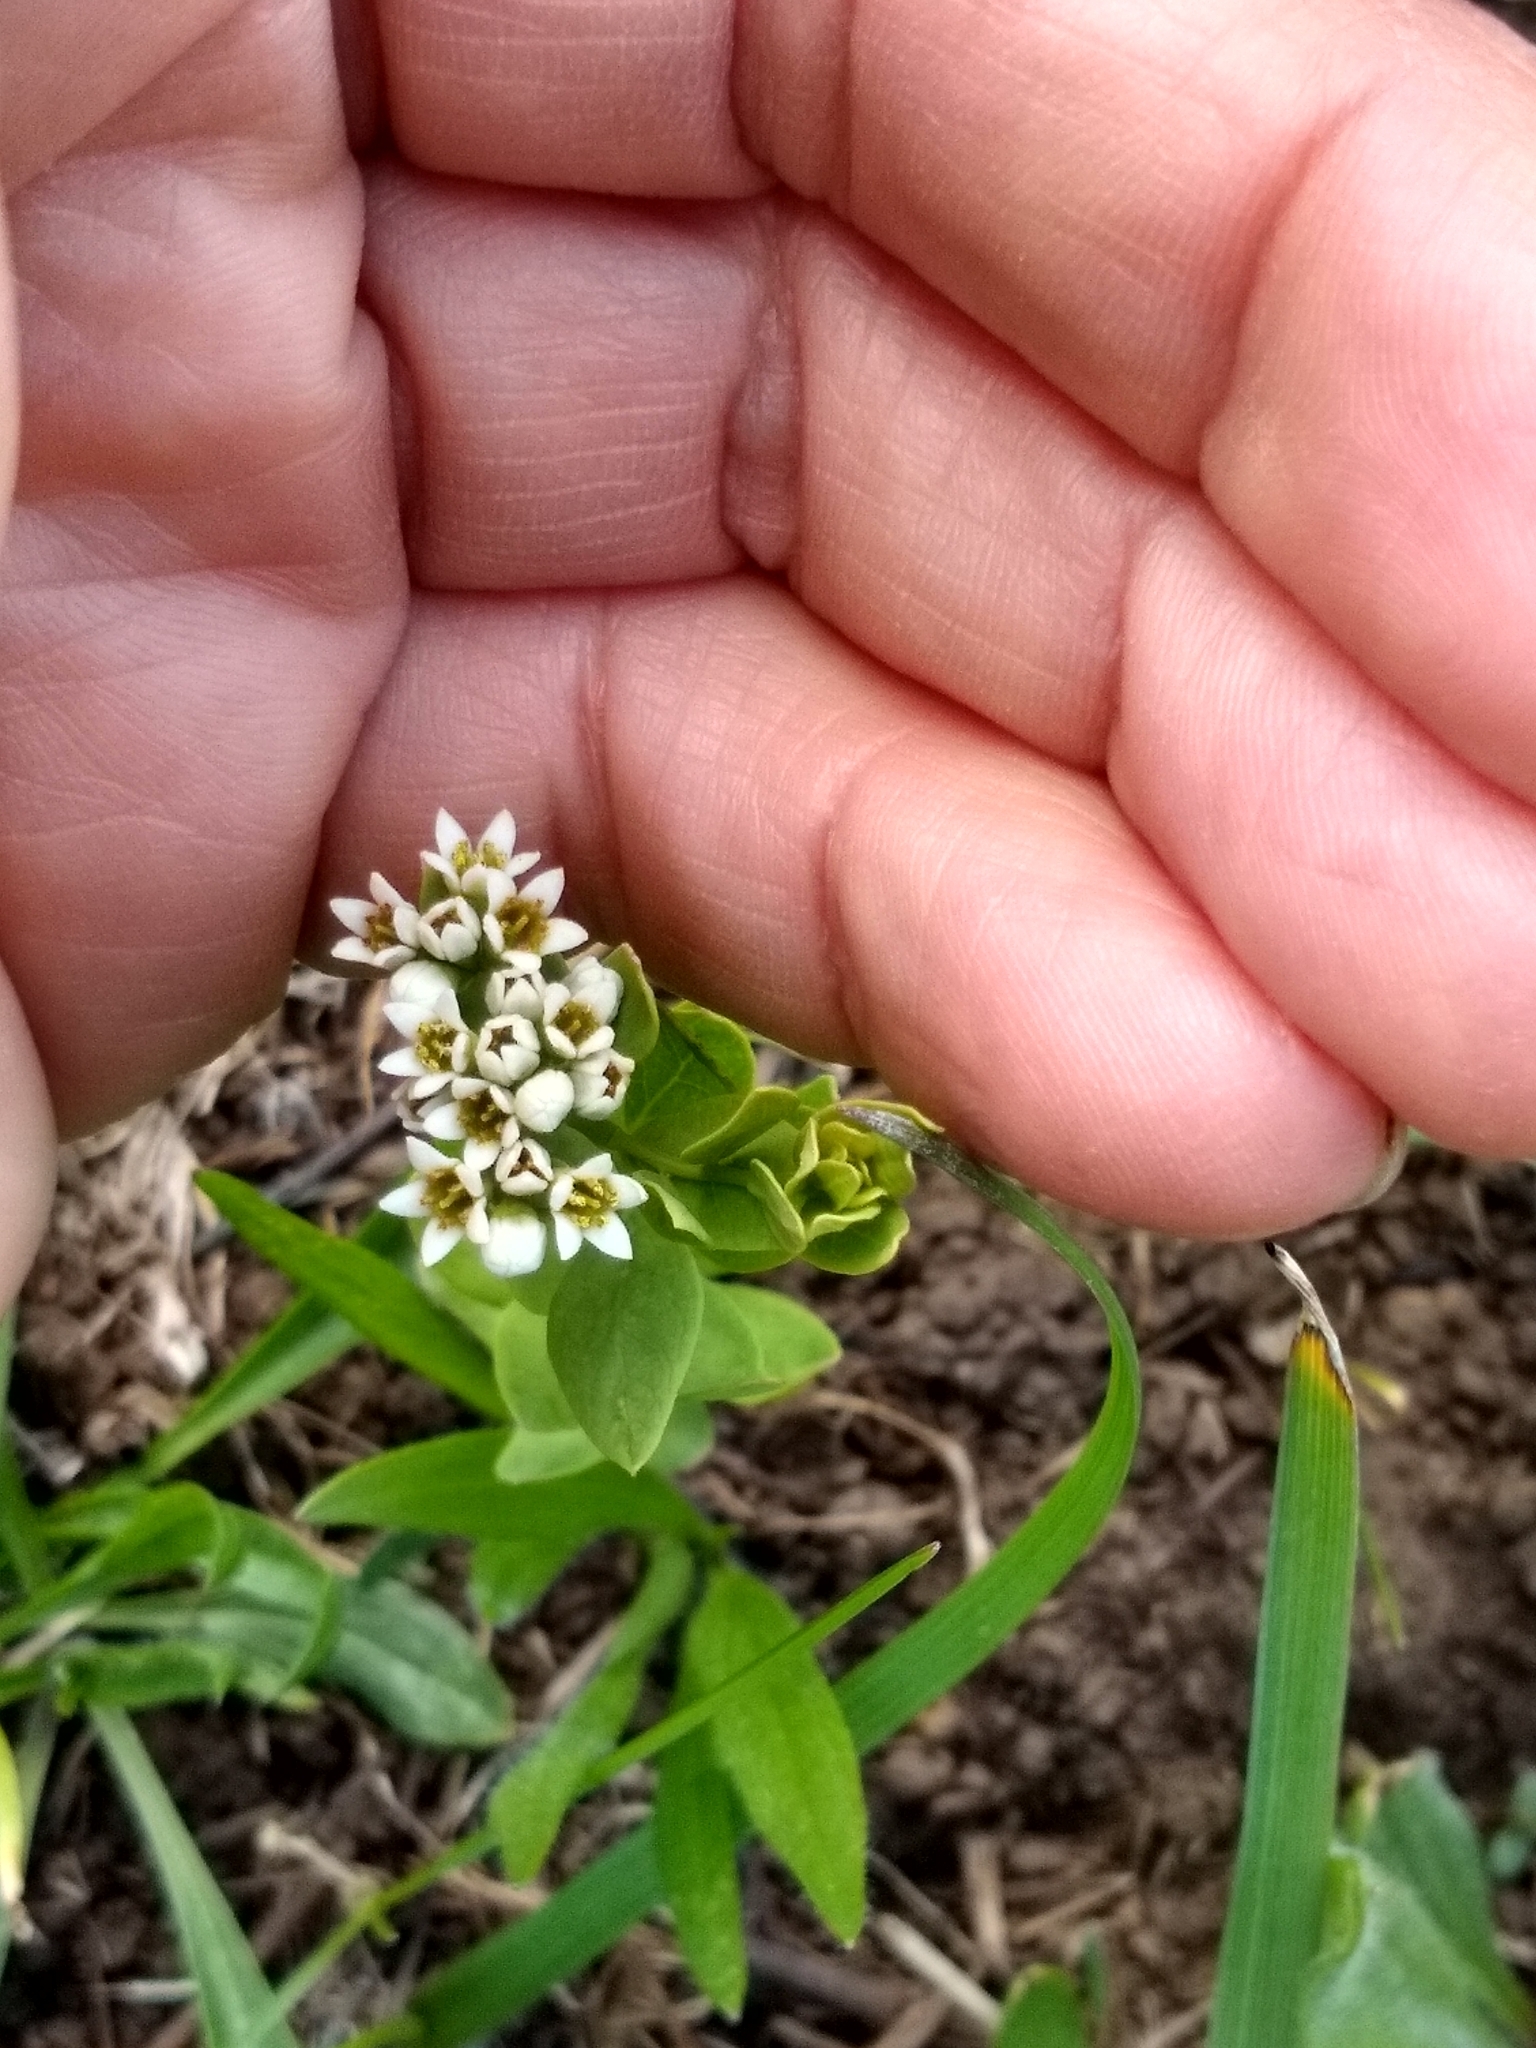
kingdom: Plantae
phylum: Tracheophyta
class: Magnoliopsida
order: Santalales
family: Comandraceae
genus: Comandra
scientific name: Comandra umbellata
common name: Bastard toadflax
